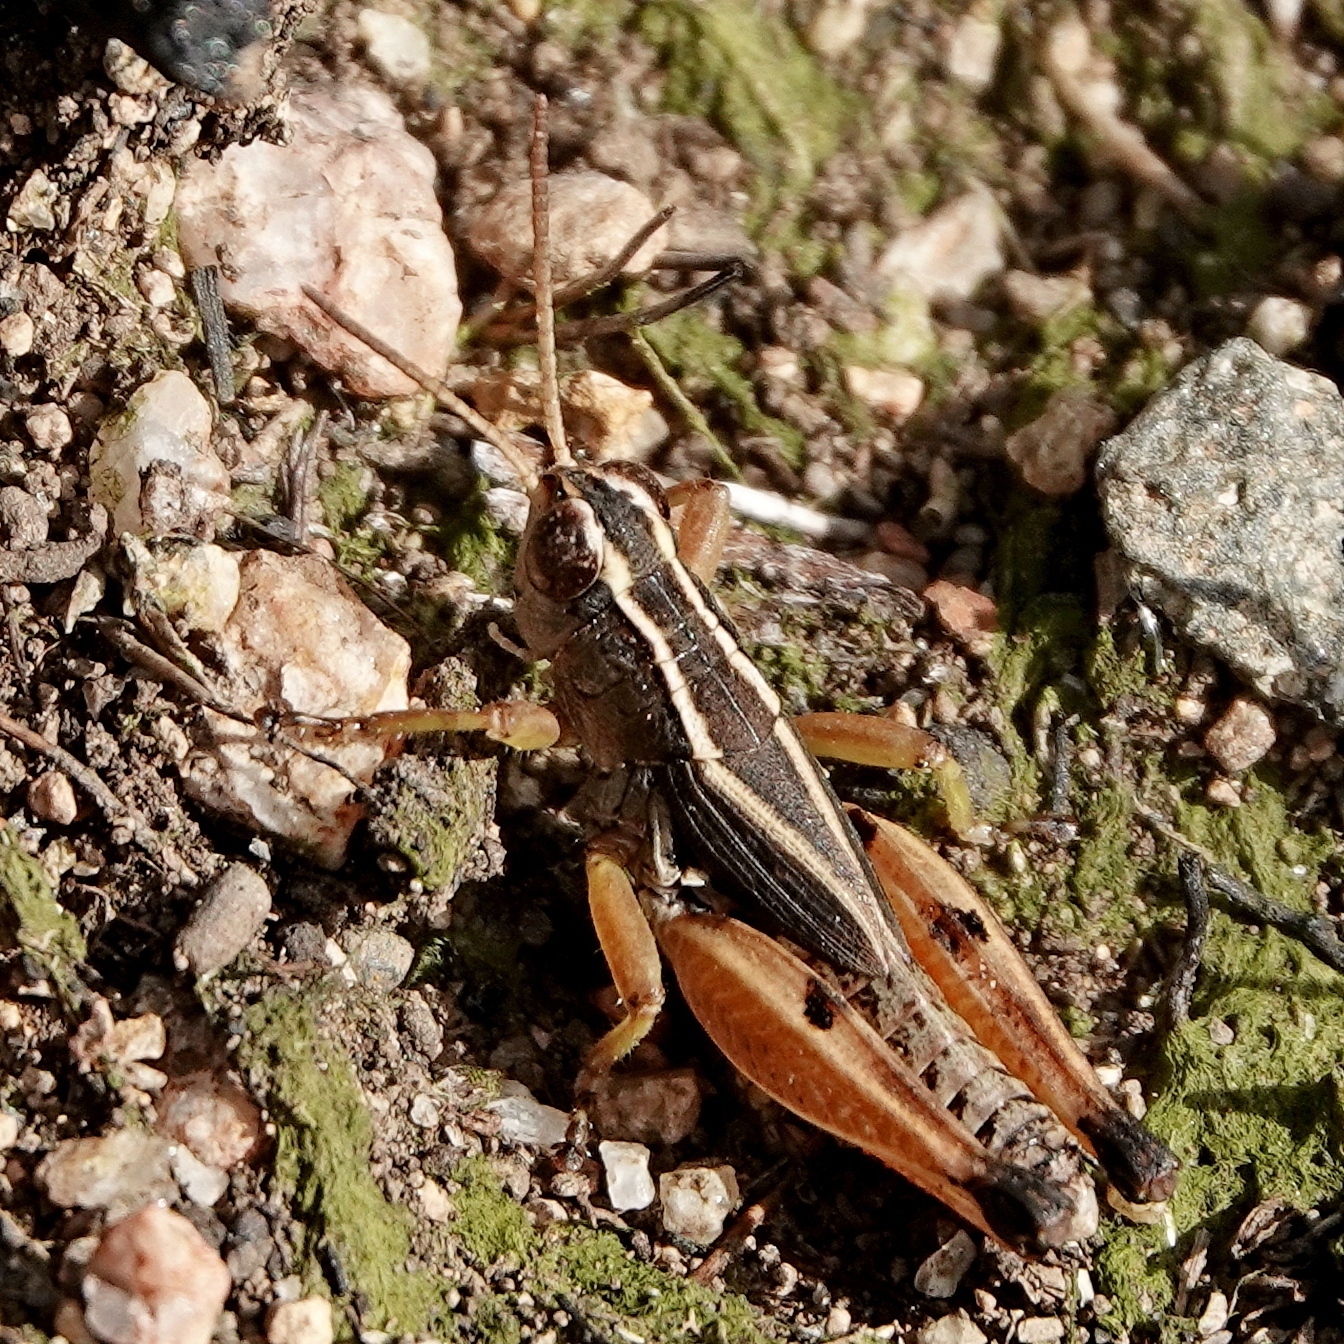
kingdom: Animalia
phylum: Arthropoda
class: Insecta
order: Orthoptera
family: Acrididae
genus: Phaulacridium
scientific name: Phaulacridium vittatum
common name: Wingless grasshopper
